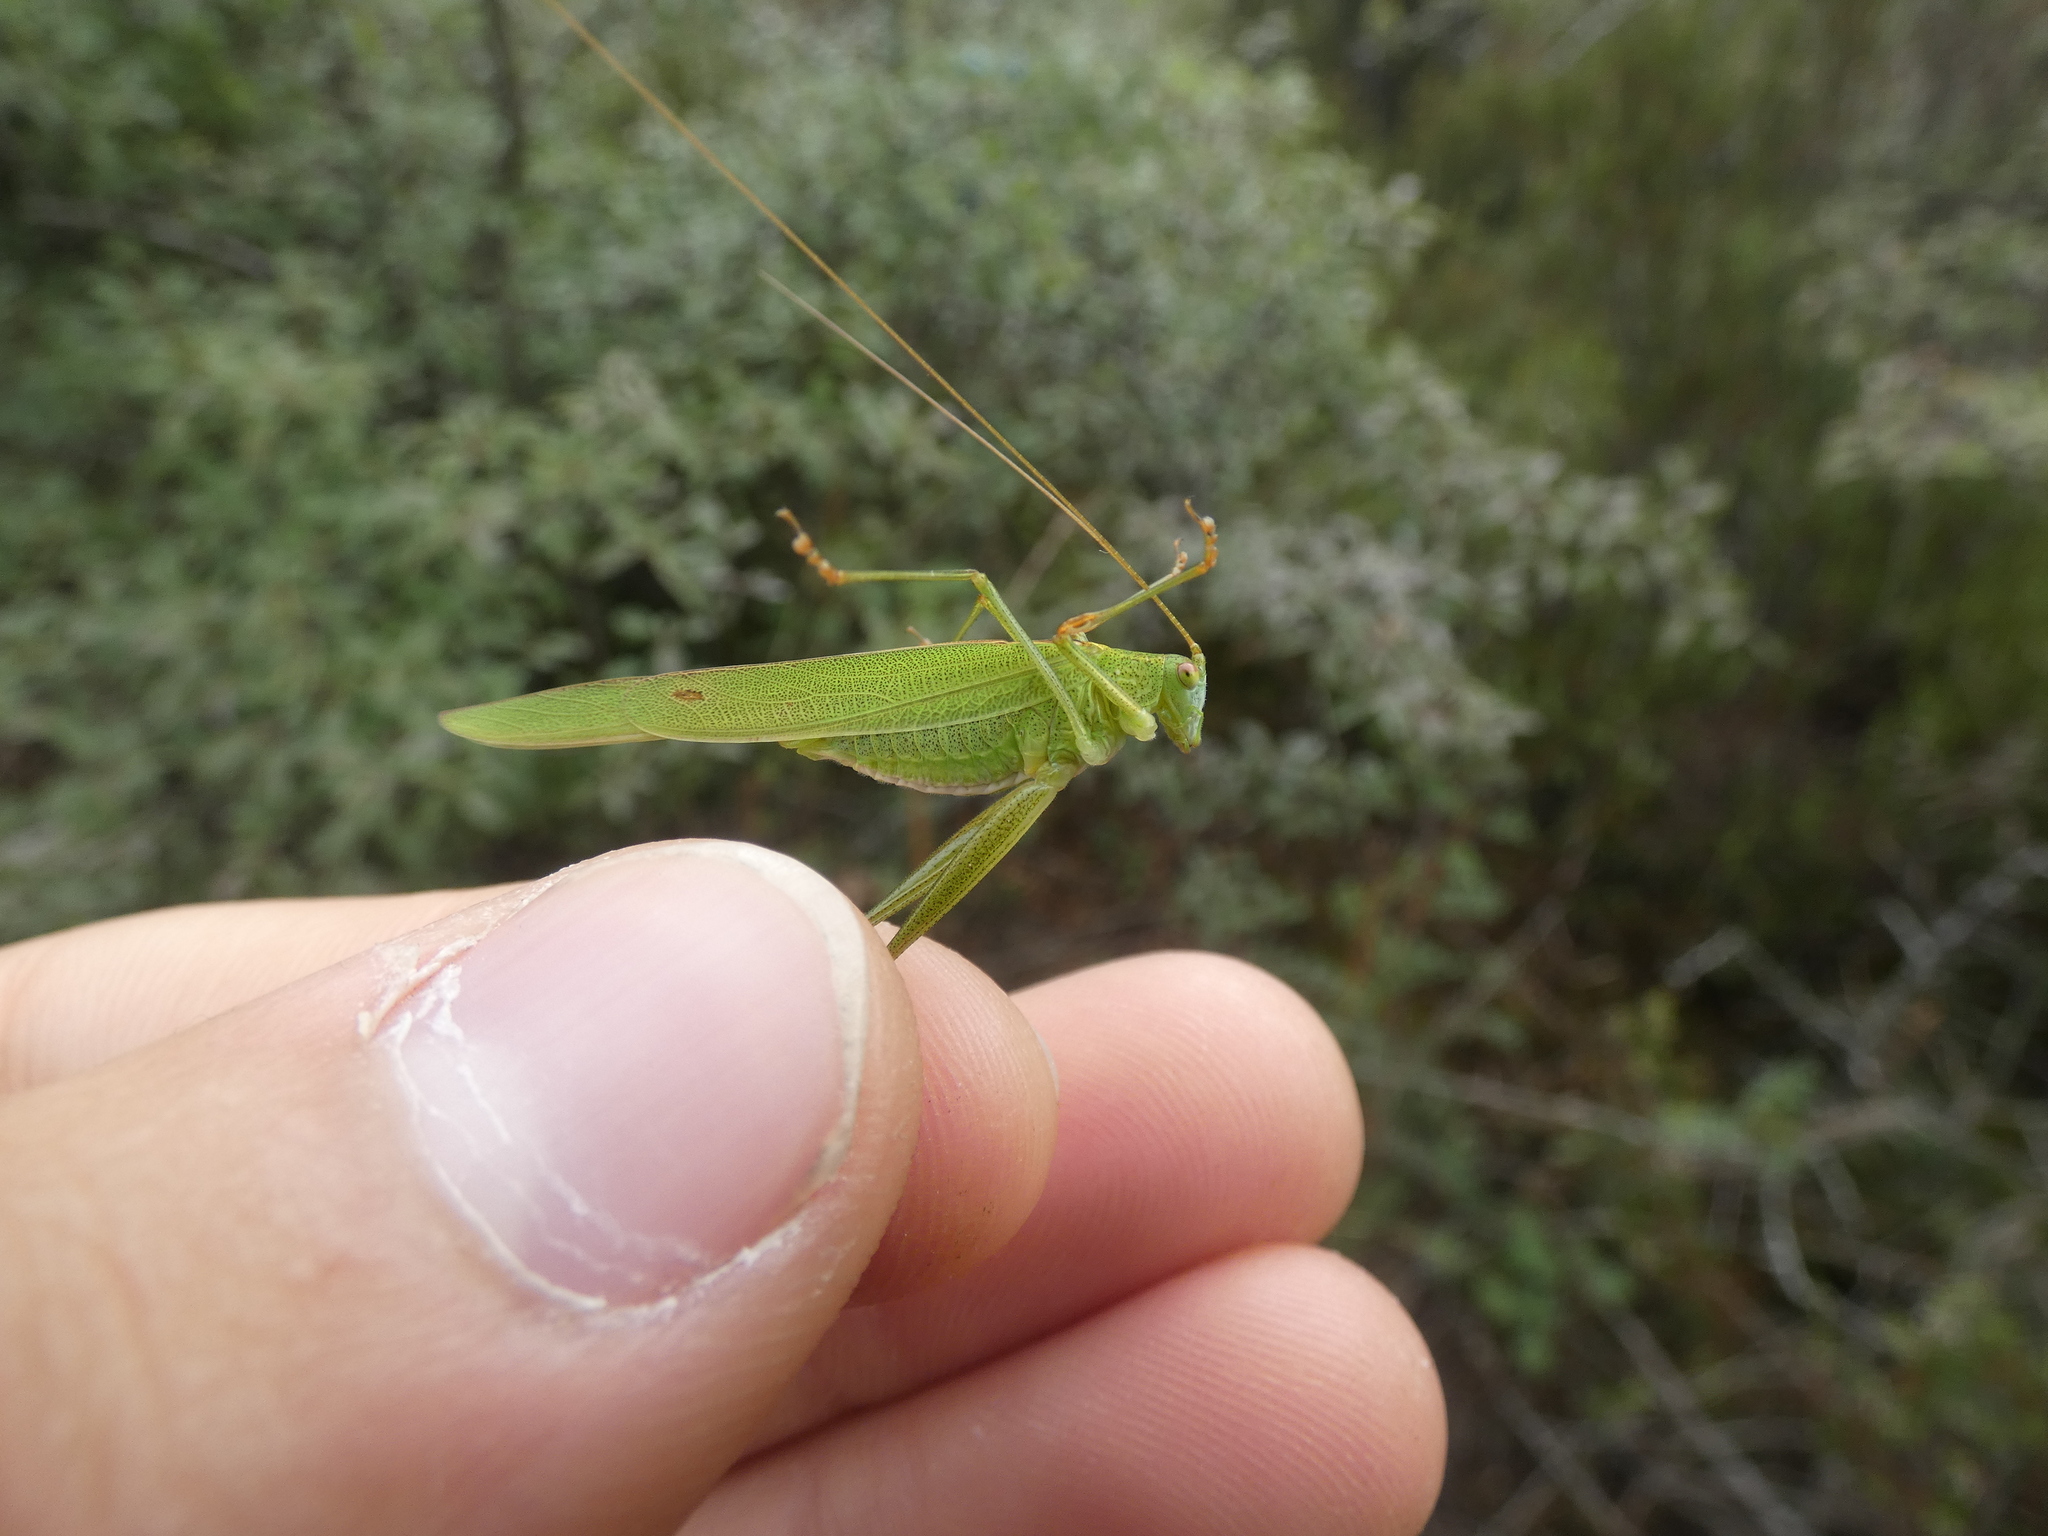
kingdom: Animalia
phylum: Arthropoda
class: Insecta
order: Orthoptera
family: Tettigoniidae
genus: Phaneroptera
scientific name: Phaneroptera falcata
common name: Sickle-bearing bush-cricket
